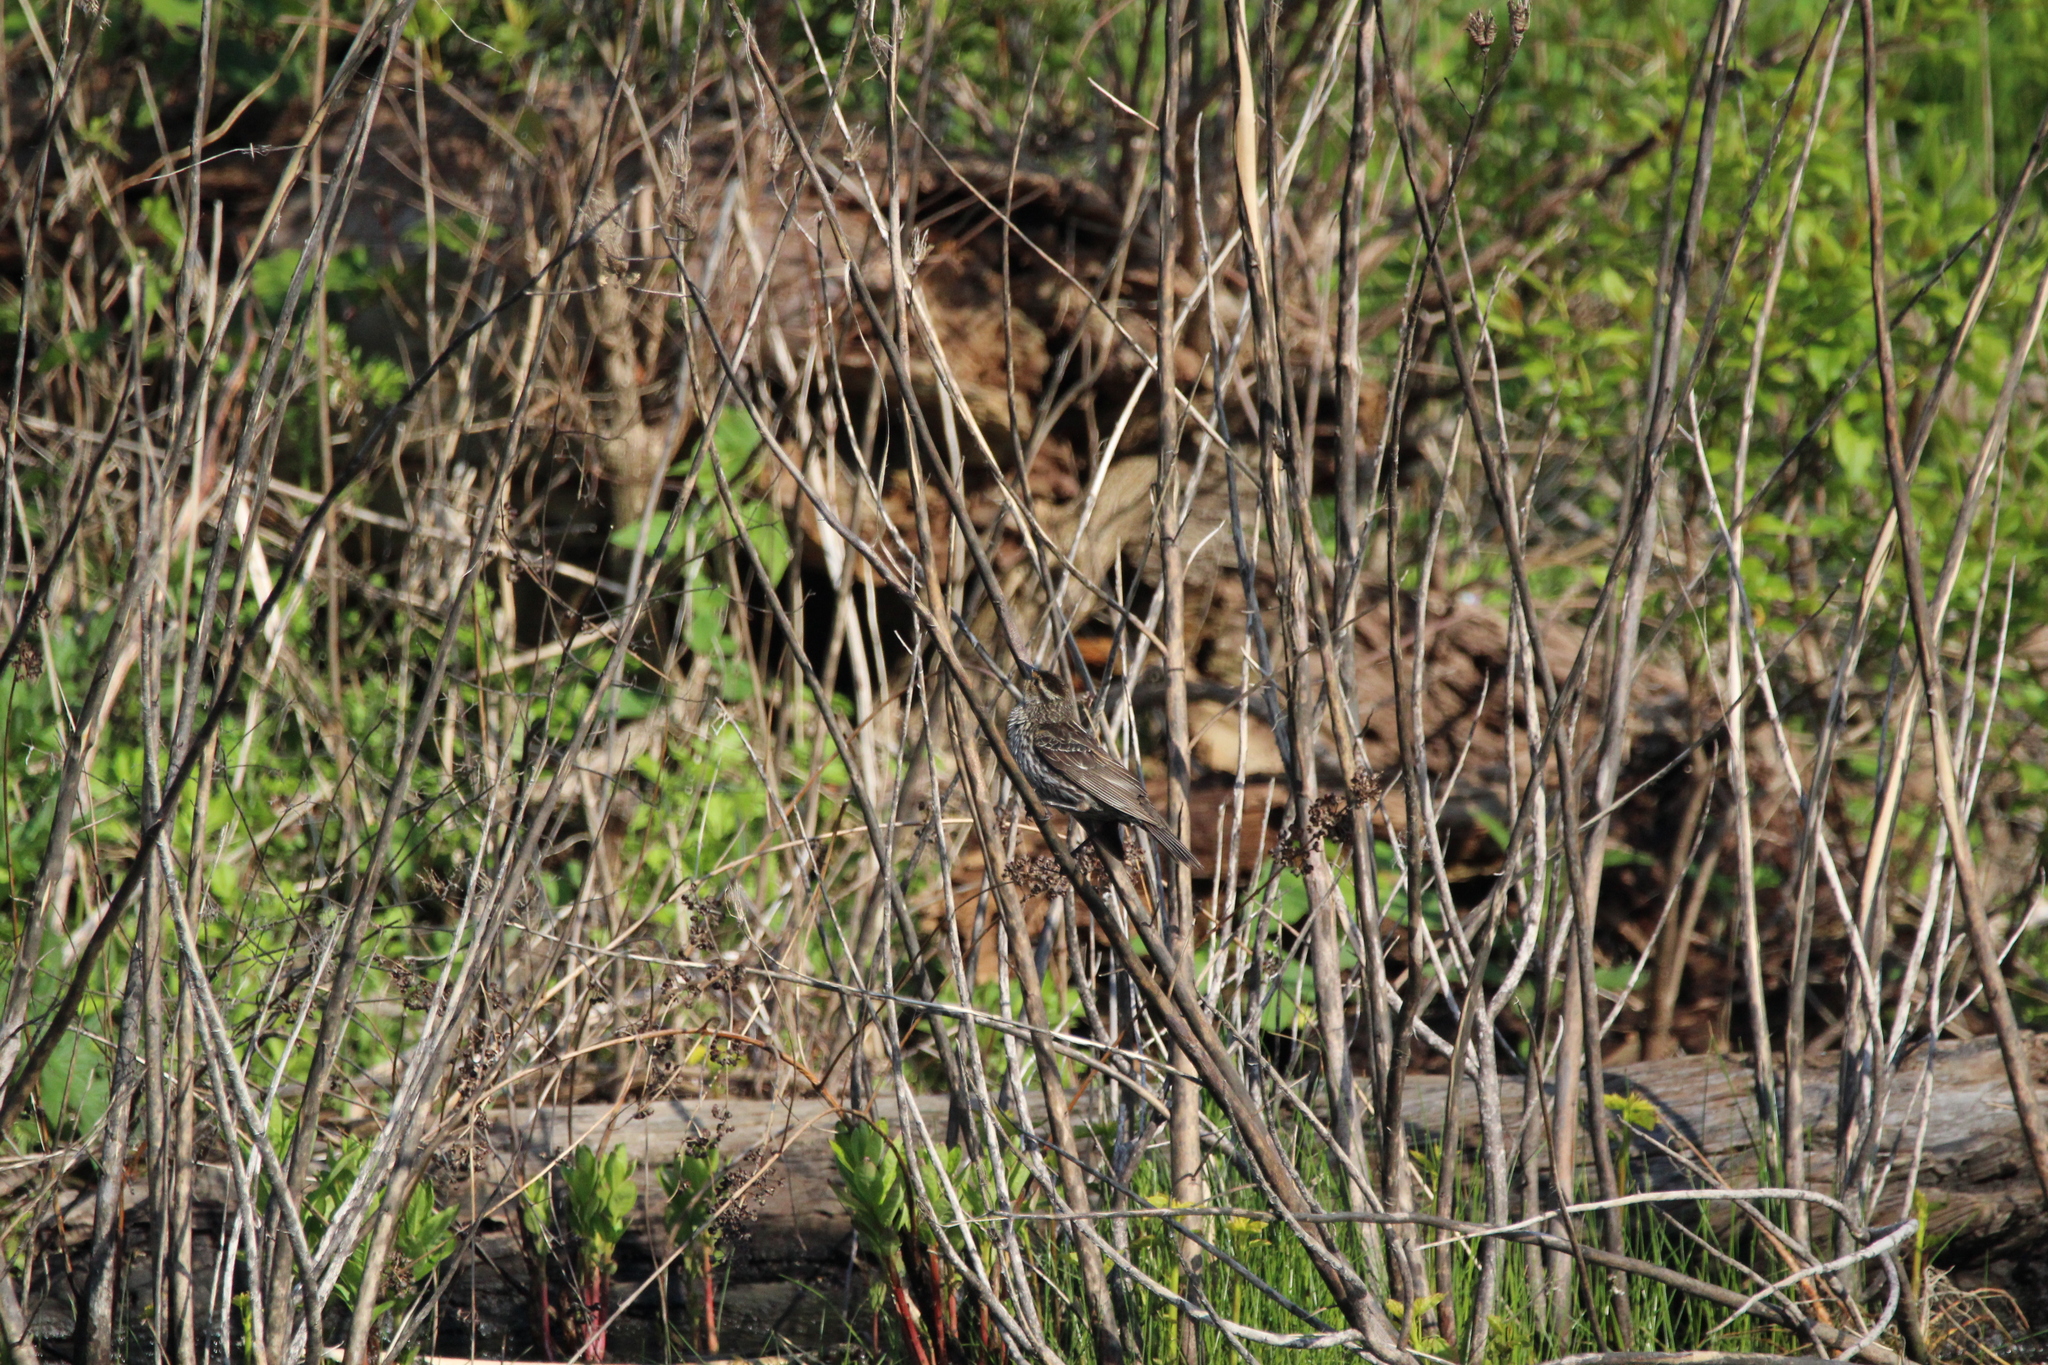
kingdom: Animalia
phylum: Chordata
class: Aves
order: Passeriformes
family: Icteridae
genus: Agelaius
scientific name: Agelaius phoeniceus
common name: Red-winged blackbird
